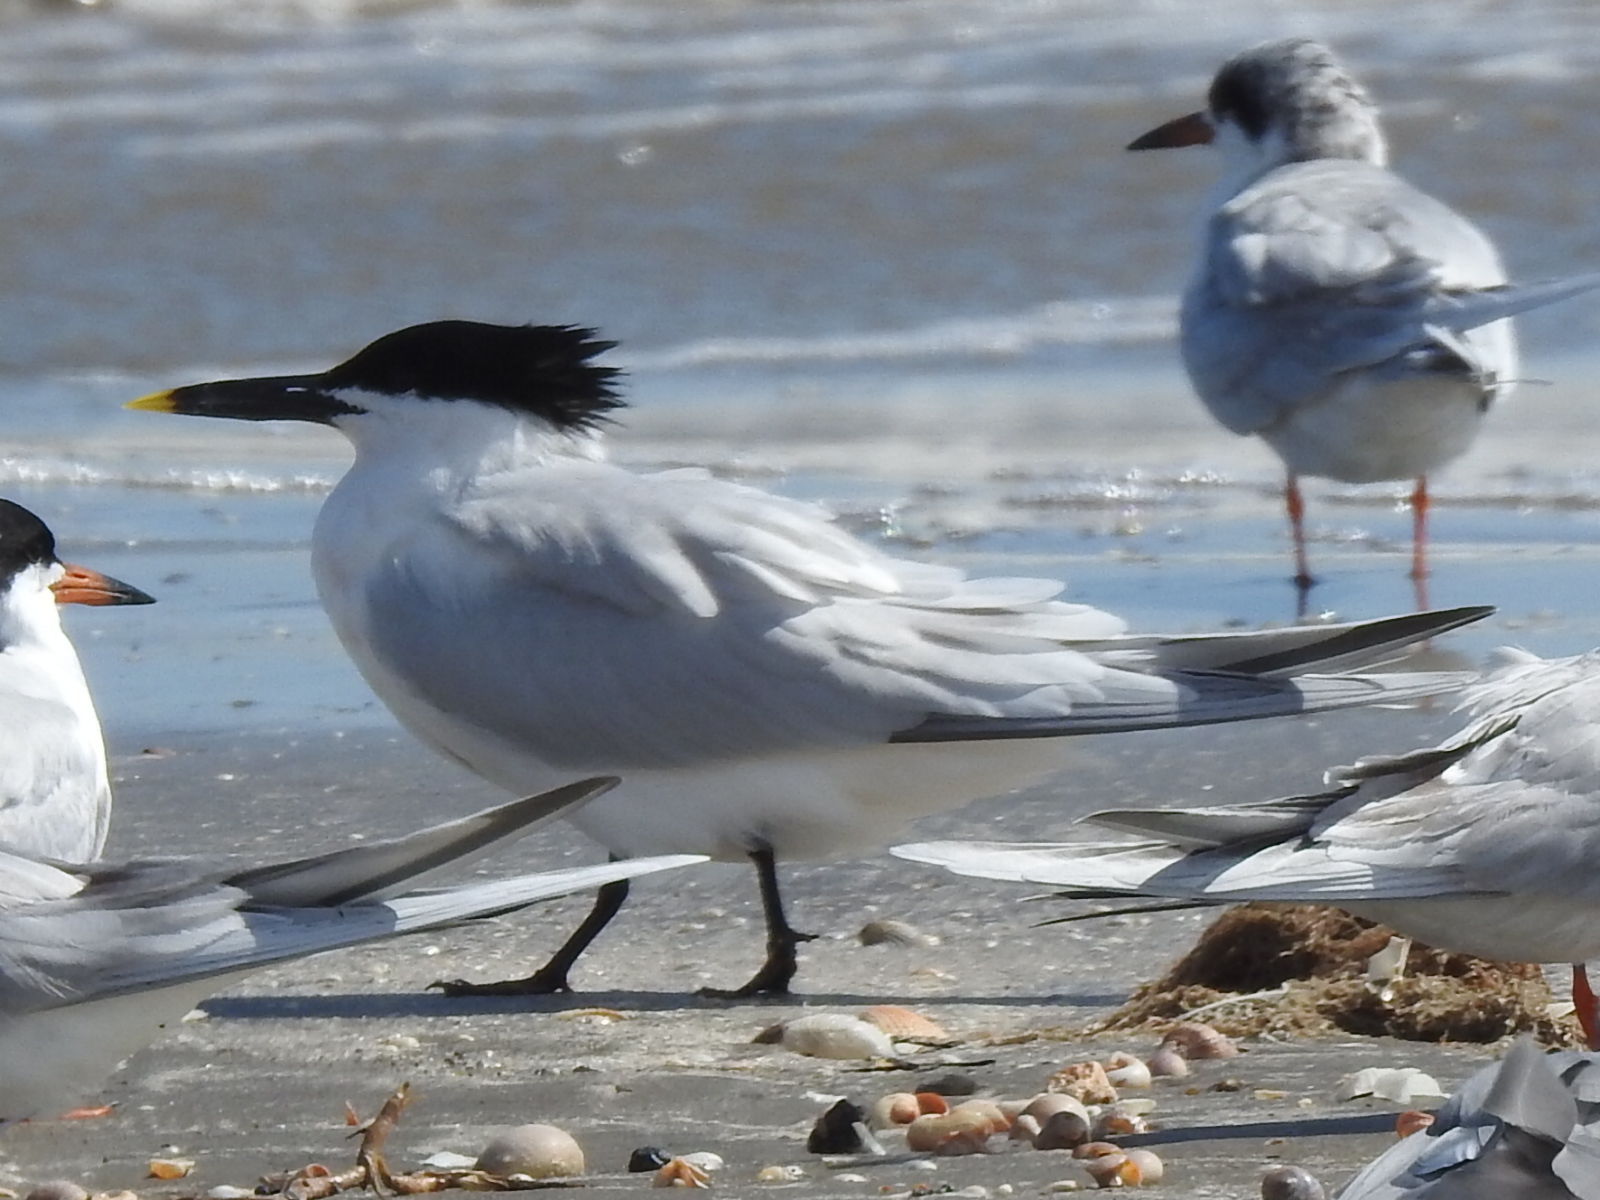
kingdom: Animalia
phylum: Chordata
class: Aves
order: Charadriiformes
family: Laridae
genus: Thalasseus
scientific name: Thalasseus sandvicensis
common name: Sandwich tern
